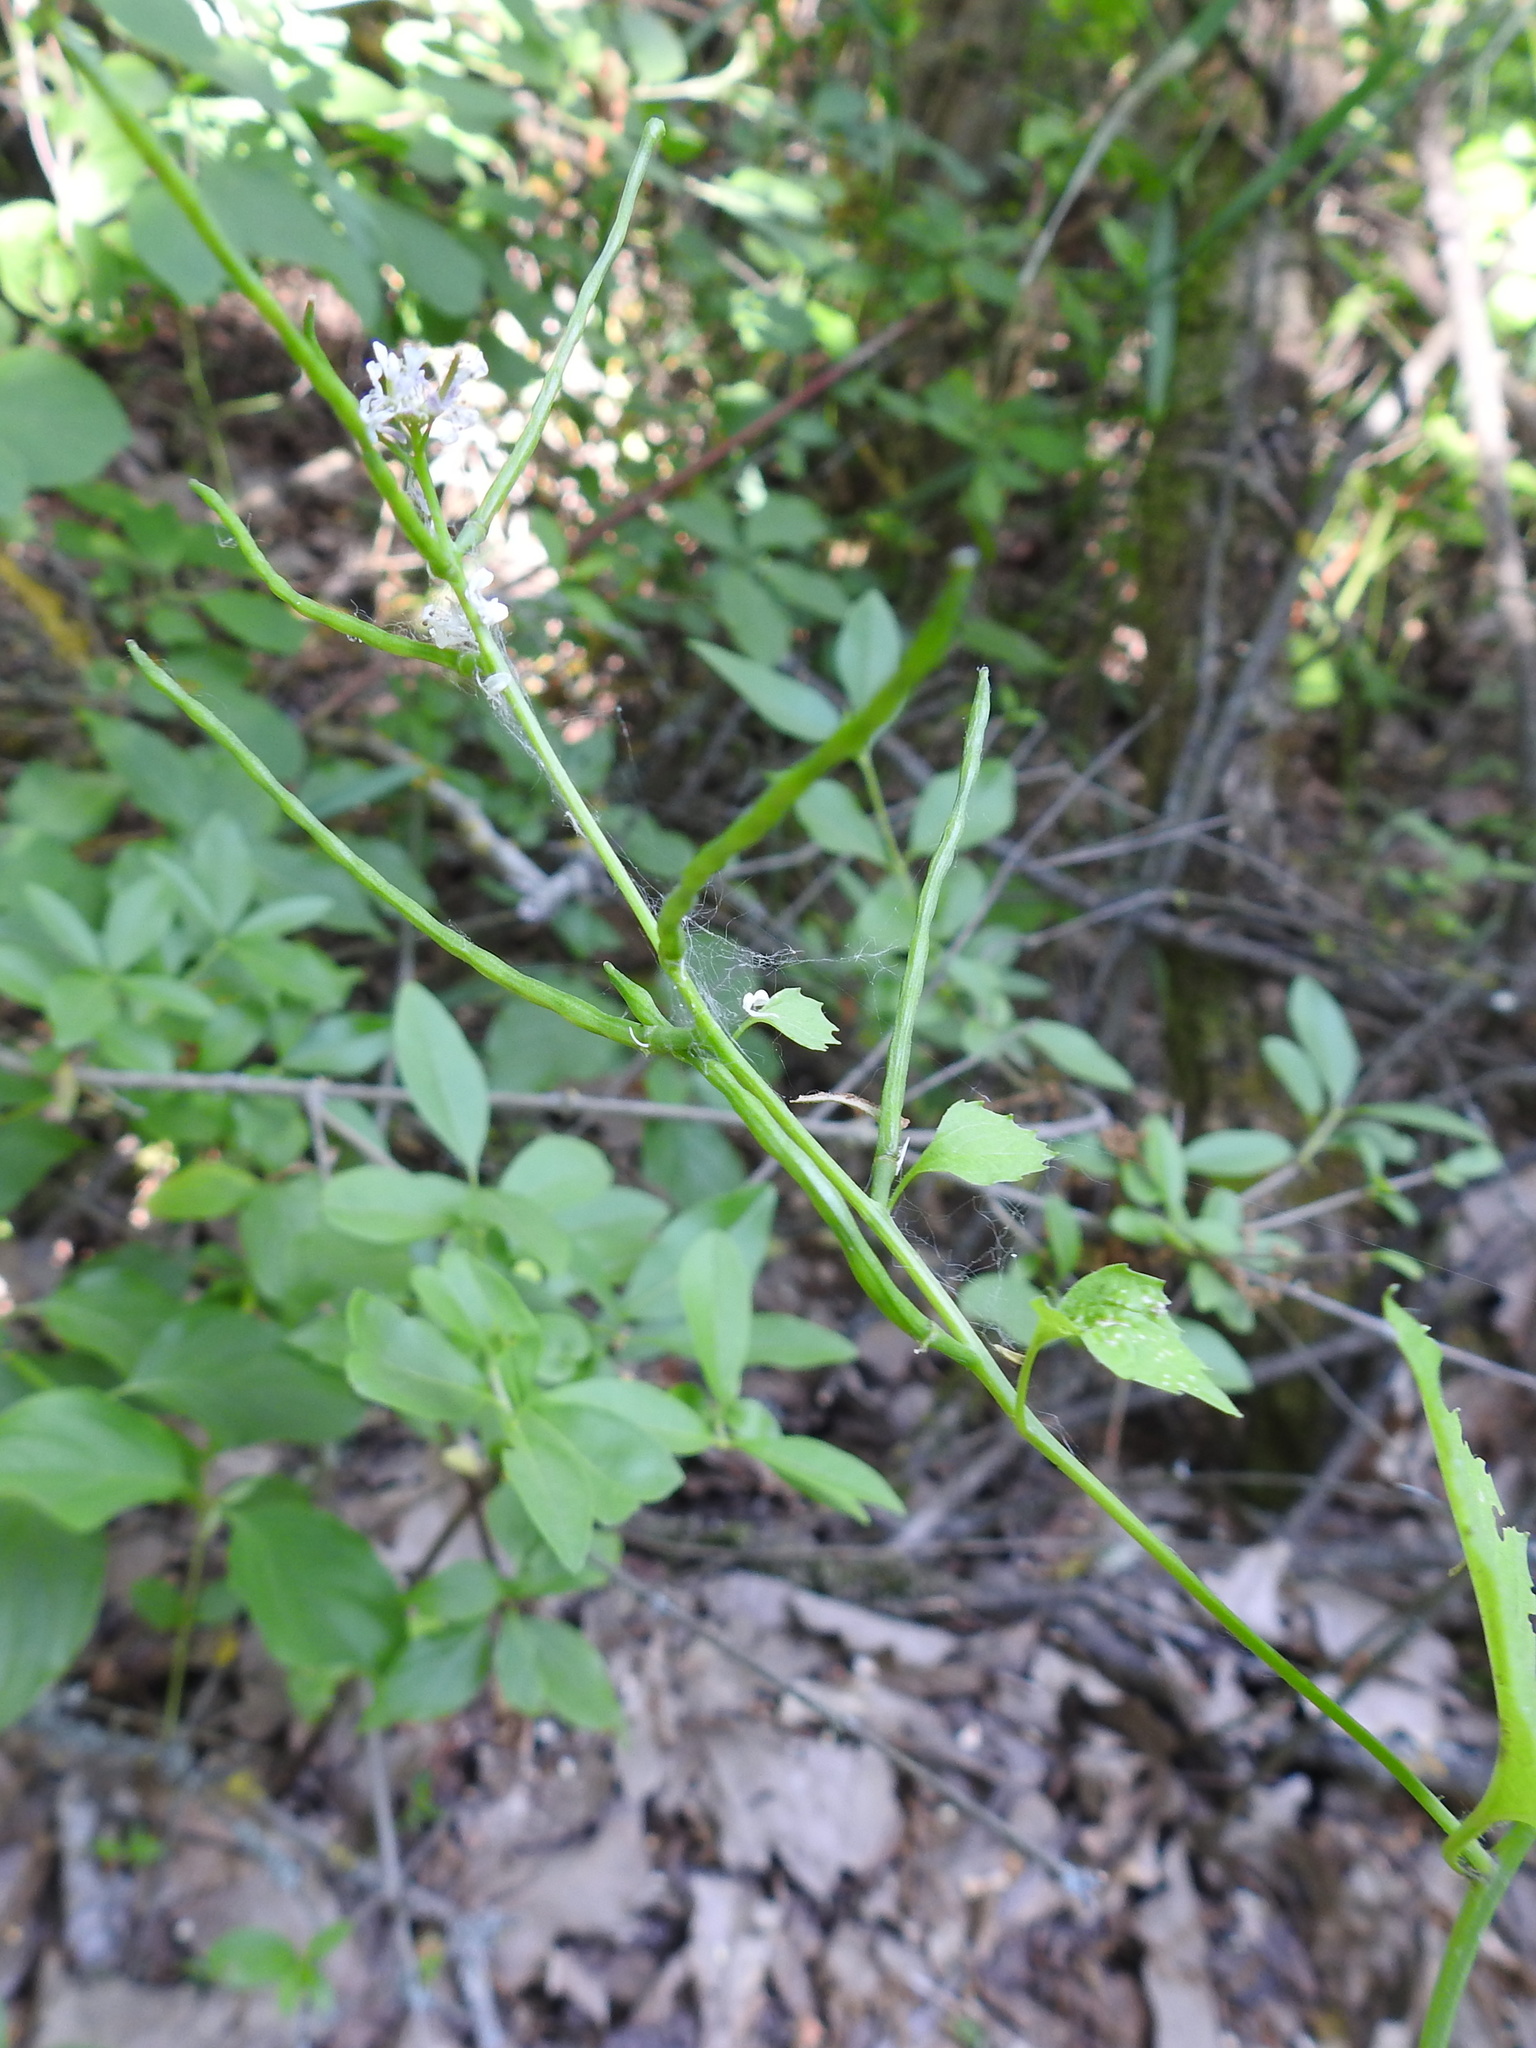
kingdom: Plantae
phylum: Tracheophyta
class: Magnoliopsida
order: Brassicales
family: Brassicaceae
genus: Alliaria
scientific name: Alliaria petiolata
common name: Garlic mustard
